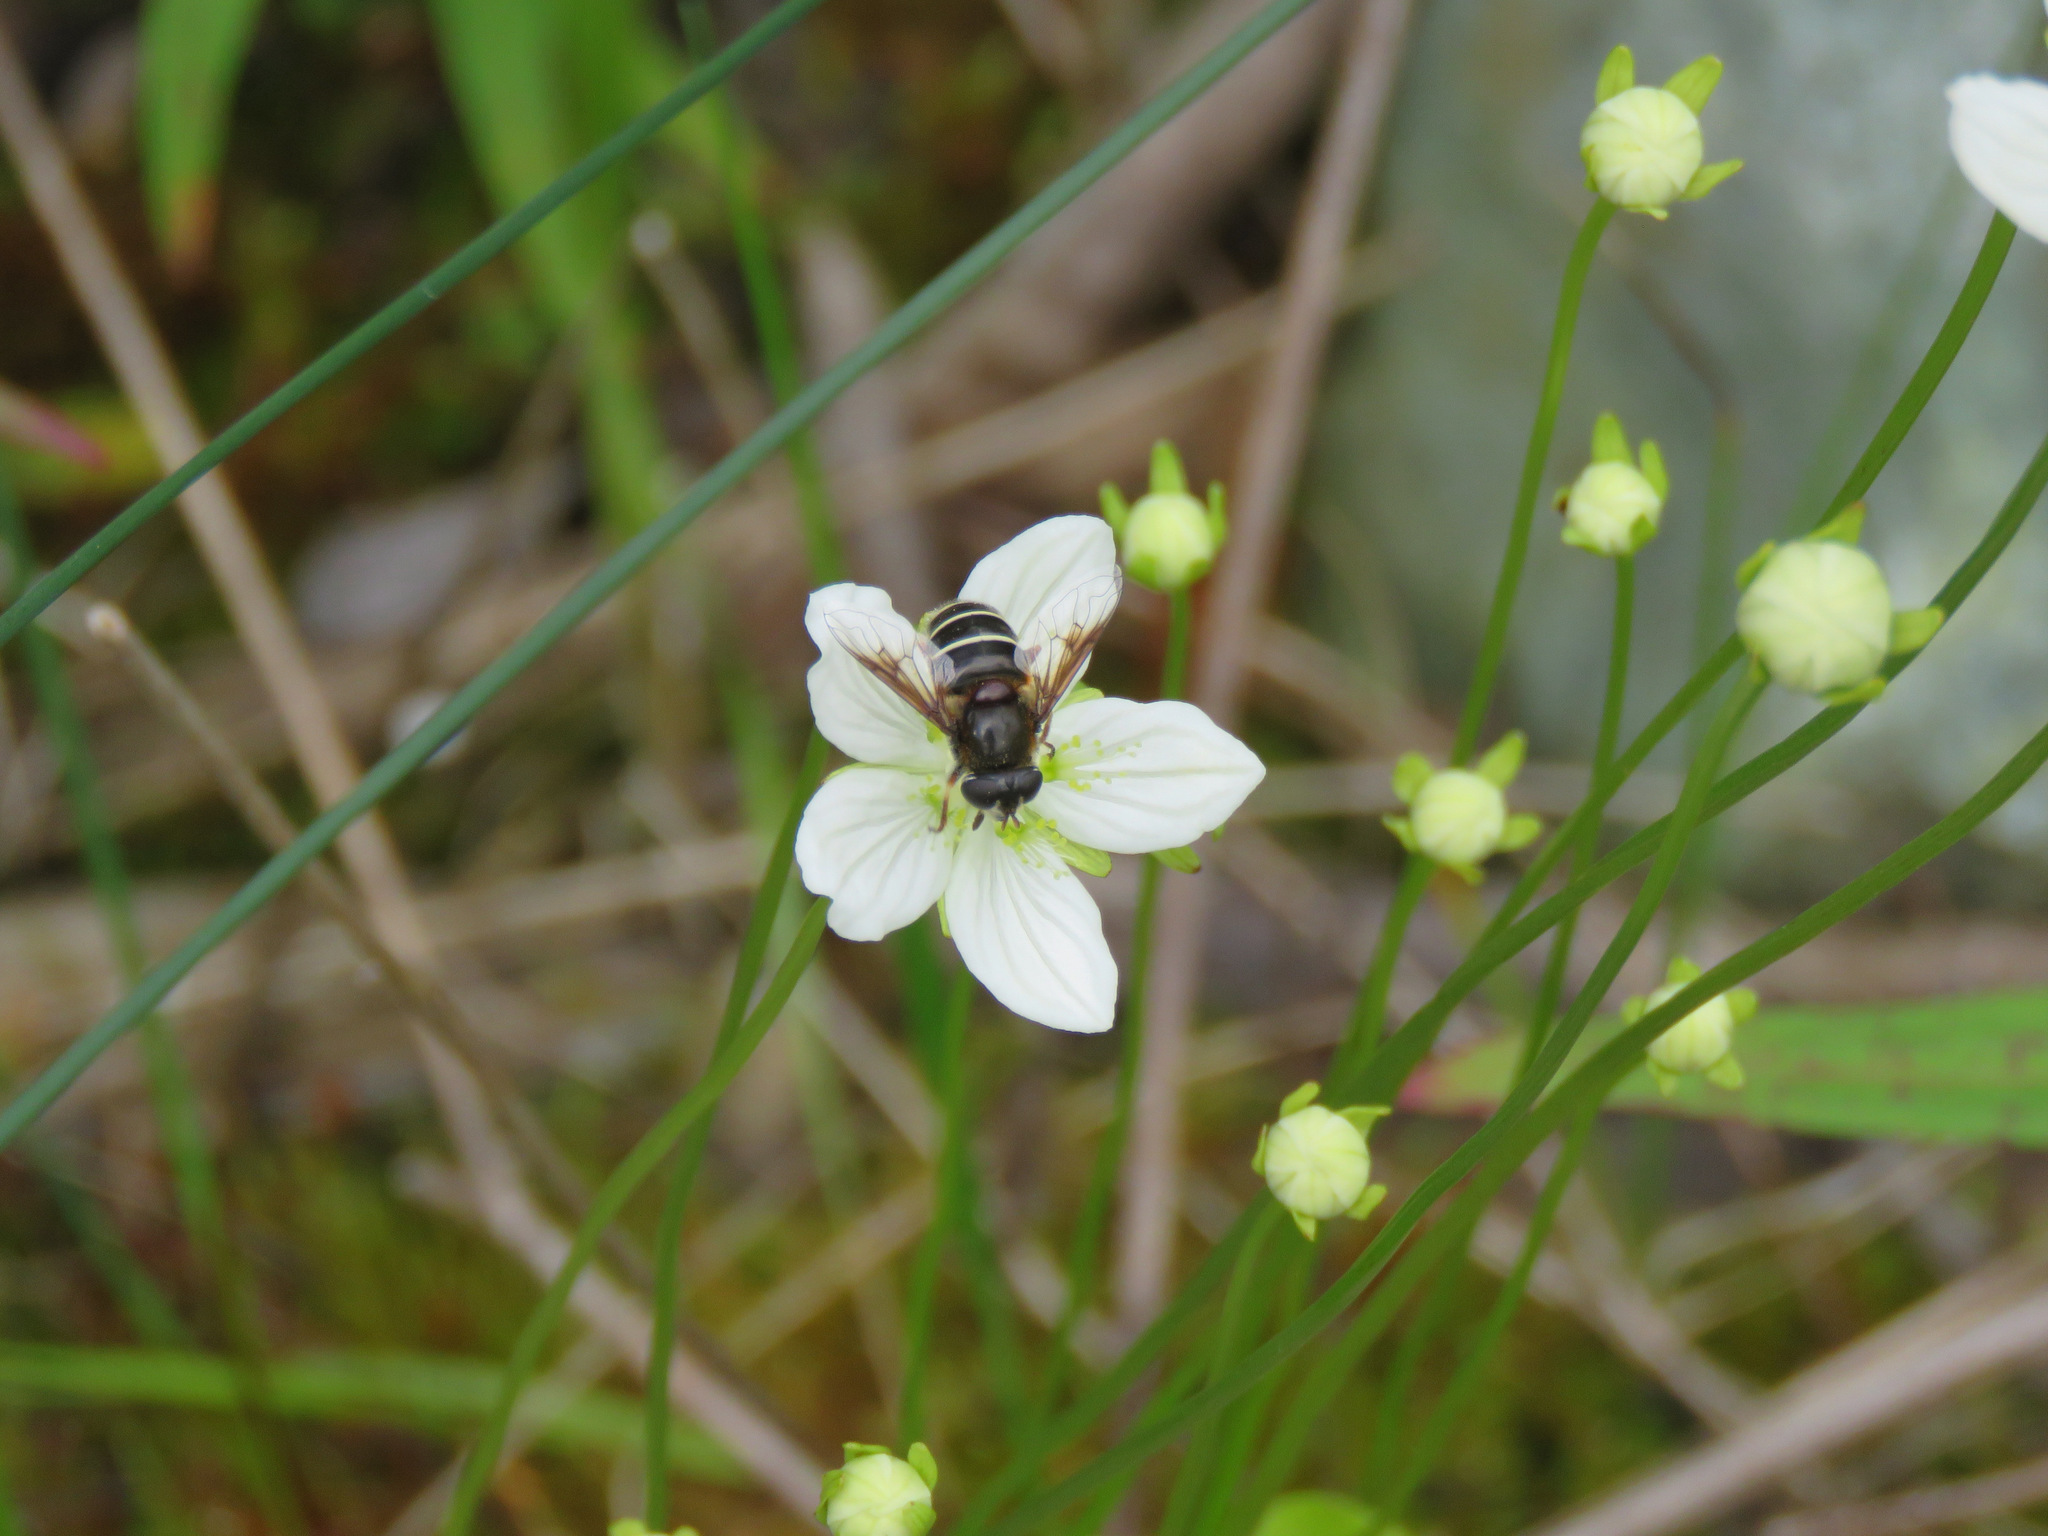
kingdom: Animalia
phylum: Arthropoda
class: Insecta
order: Diptera
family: Syrphidae
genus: Eristalis
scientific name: Eristalis cryptarum
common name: Bog hoverfly
